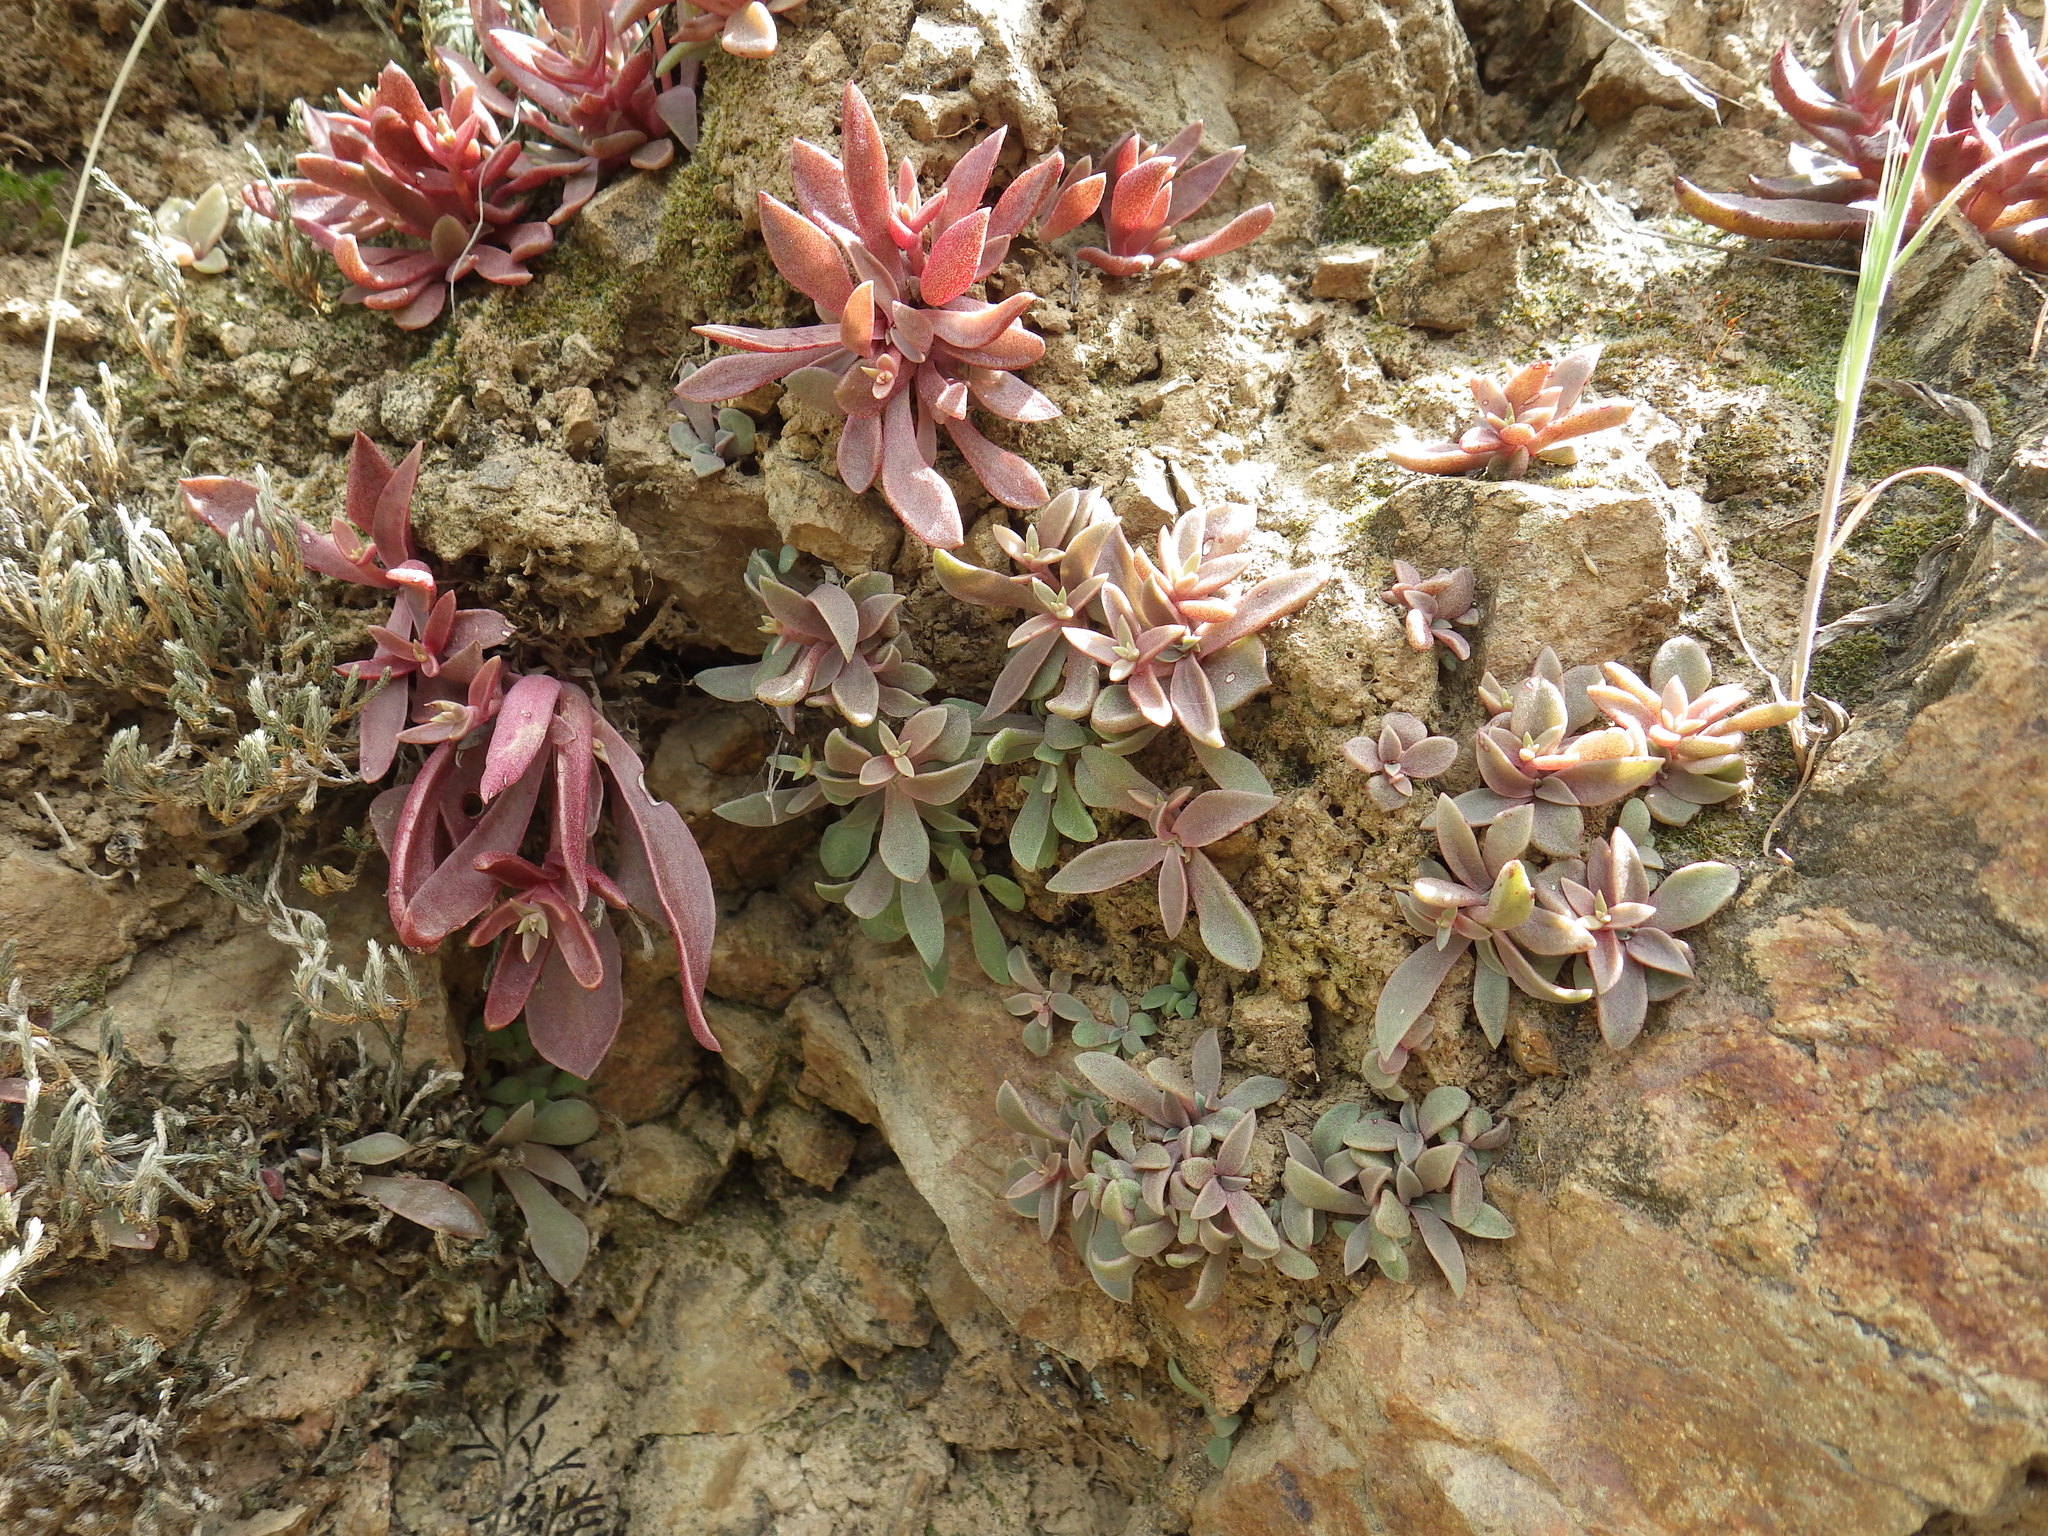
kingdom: Plantae
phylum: Tracheophyta
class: Magnoliopsida
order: Saxifragales
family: Crassulaceae
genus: Dudleya
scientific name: Dudleya parva
